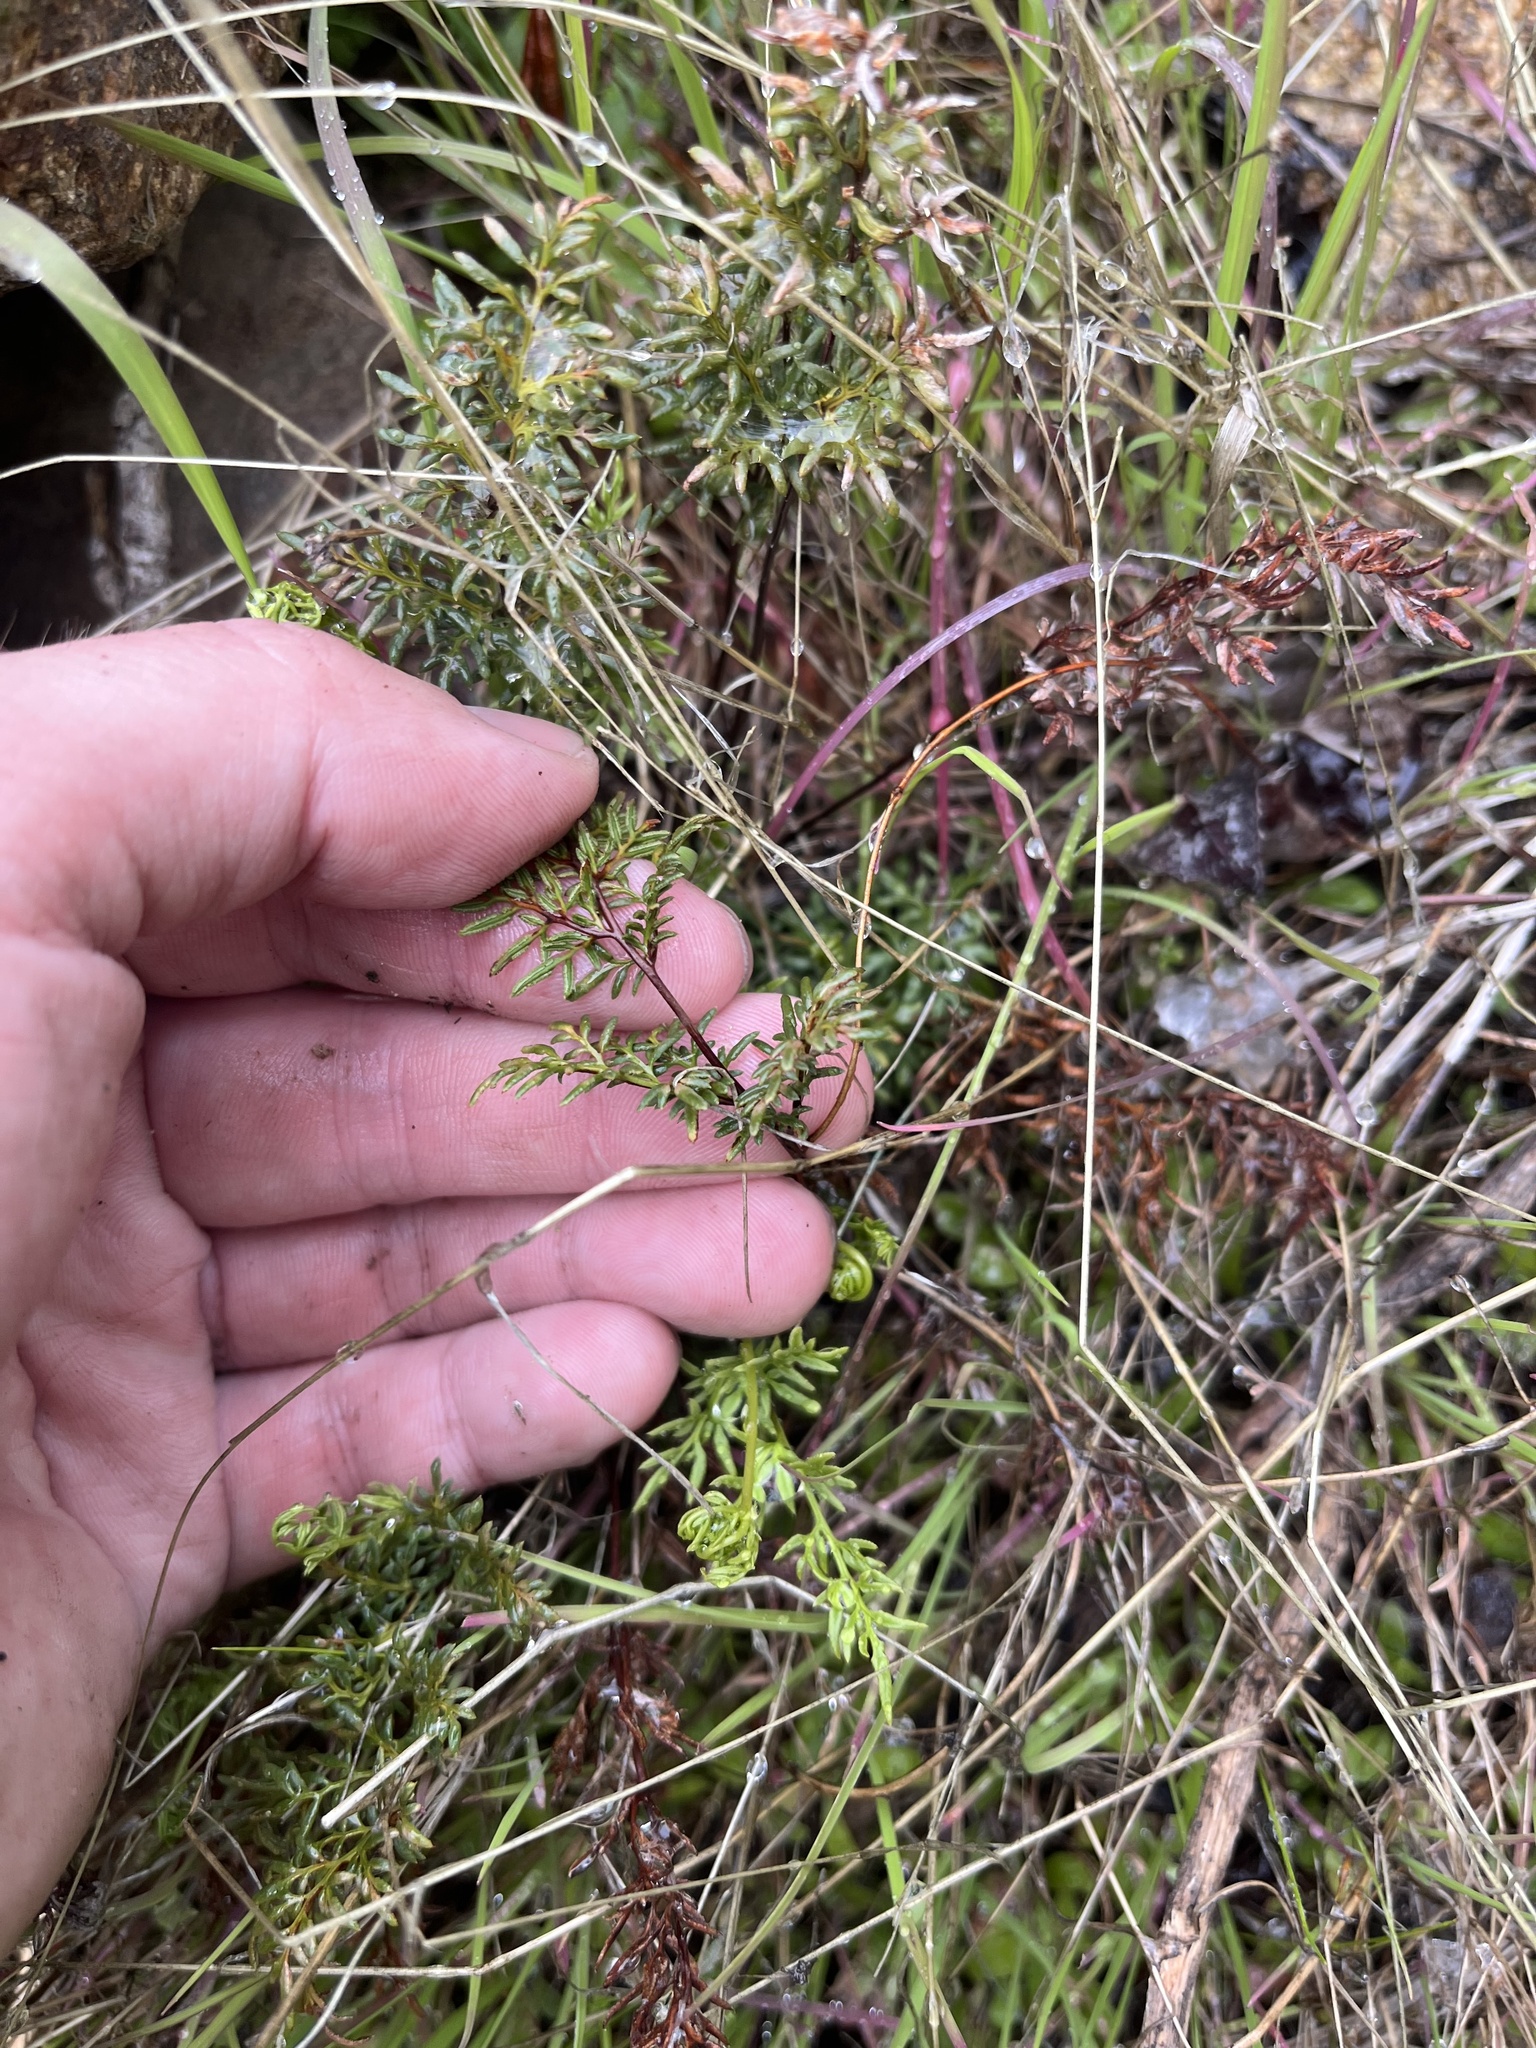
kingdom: Plantae
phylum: Tracheophyta
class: Polypodiopsida
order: Polypodiales
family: Pteridaceae
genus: Aspidotis
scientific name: Aspidotis densa
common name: Indian's dream
